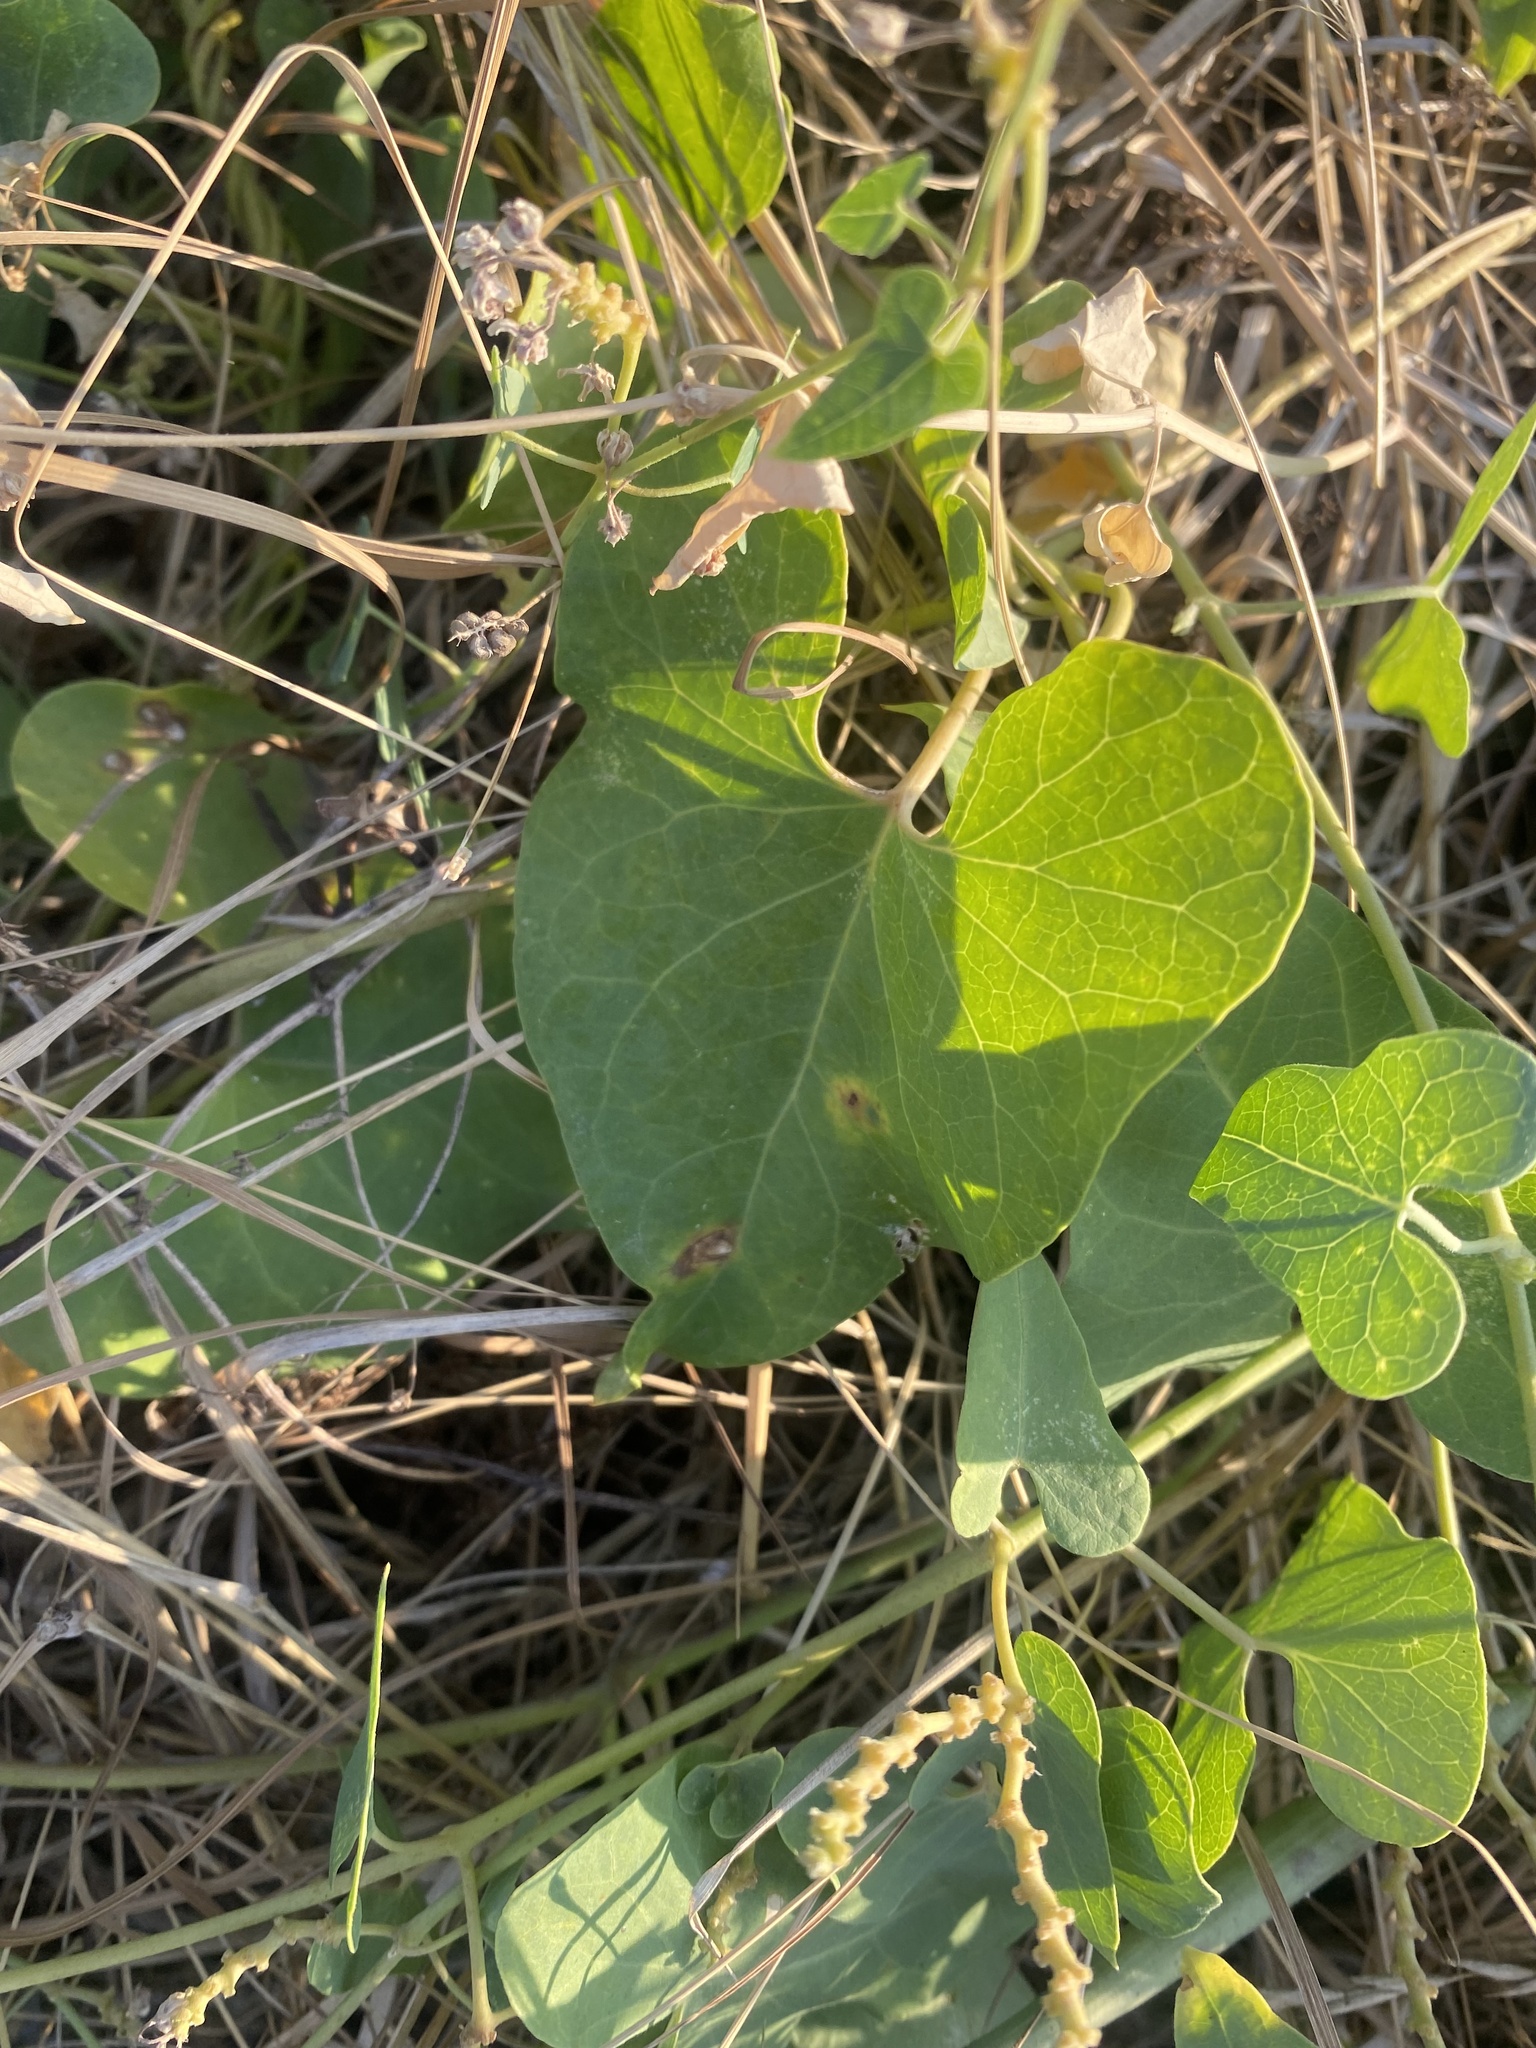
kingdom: Plantae
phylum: Tracheophyta
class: Magnoliopsida
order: Gentianales
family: Apocynaceae
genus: Cynanchum
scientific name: Cynanchum acutum
